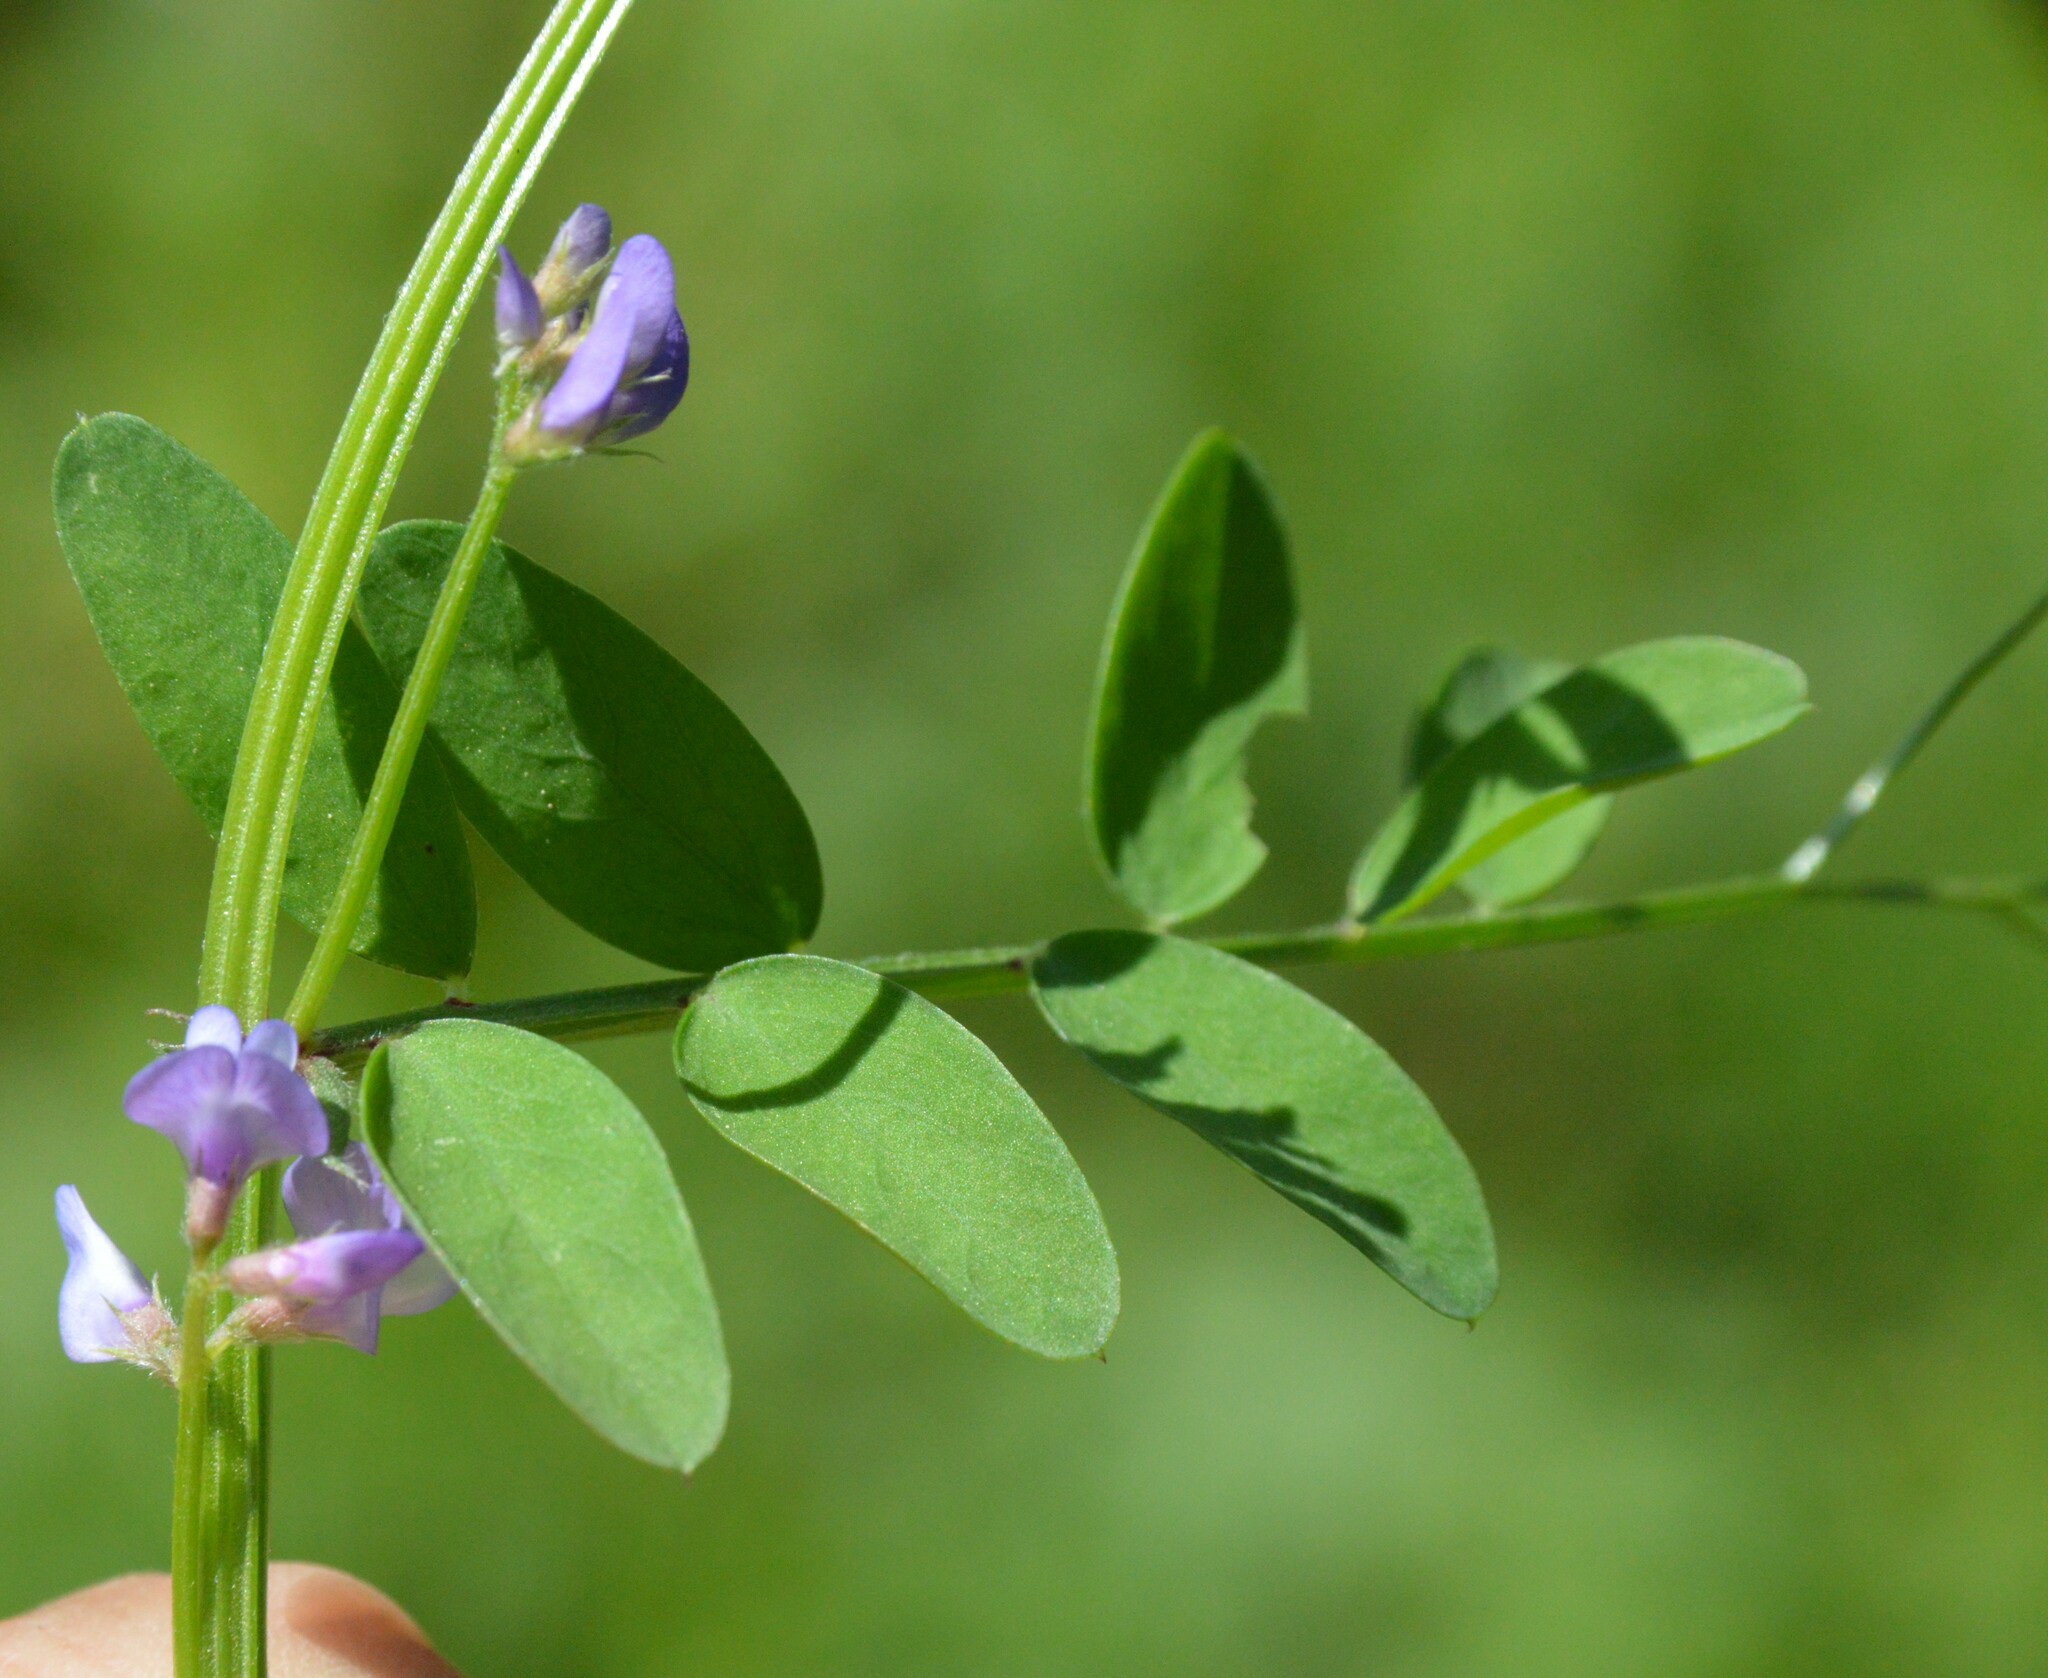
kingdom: Plantae
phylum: Tracheophyta
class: Magnoliopsida
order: Fabales
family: Fabaceae
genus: Vicia
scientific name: Vicia ludoviciana
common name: Louisiana vetch
